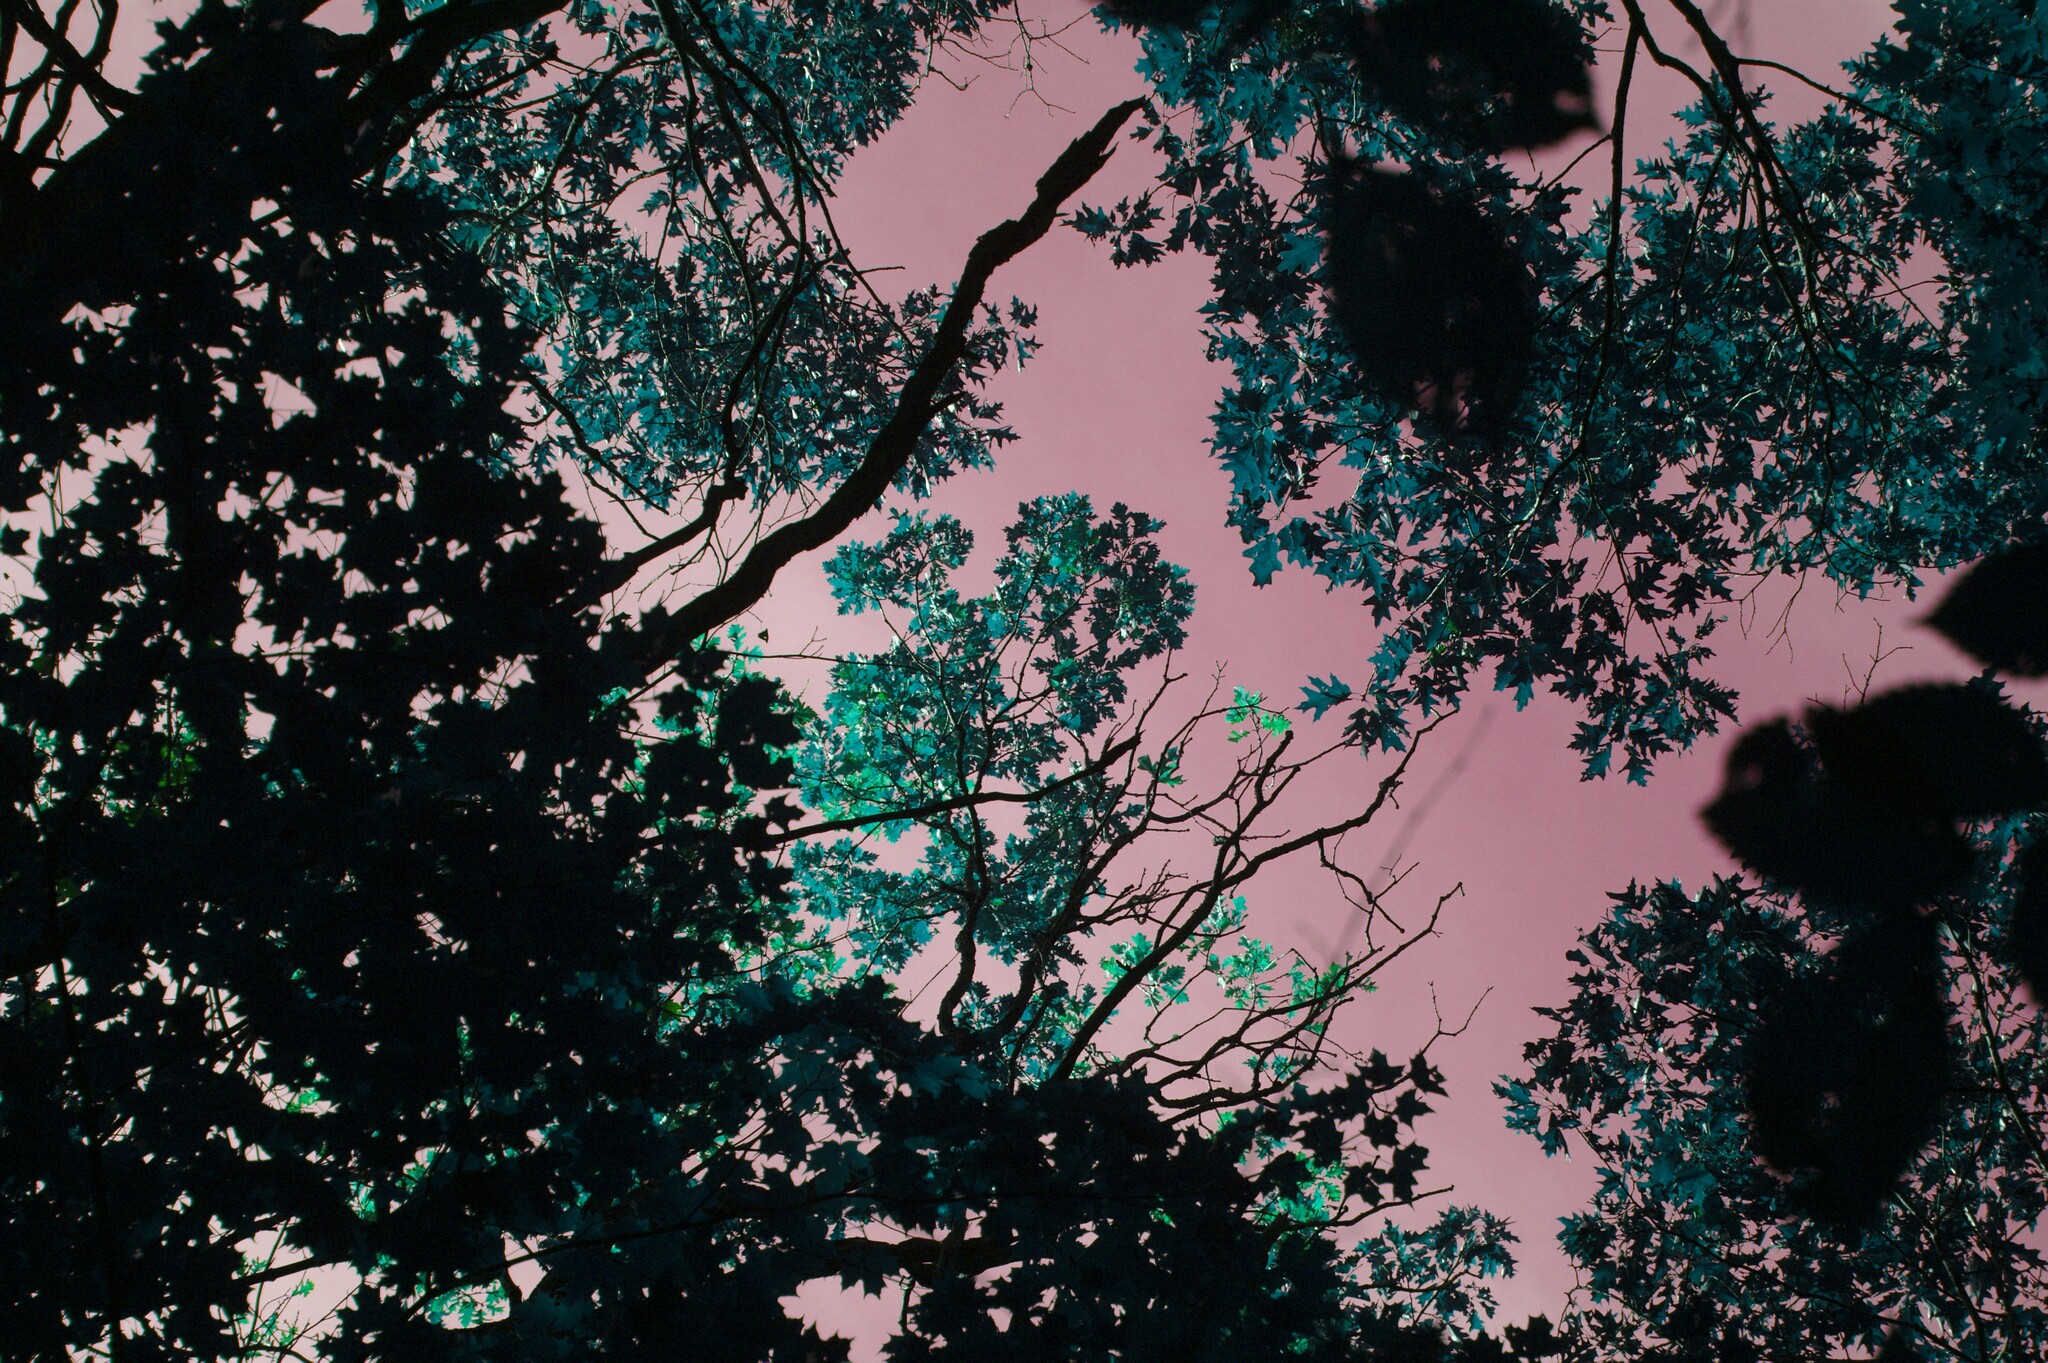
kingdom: Plantae
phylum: Tracheophyta
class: Magnoliopsida
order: Fagales
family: Fagaceae
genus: Quercus
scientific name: Quercus rubra
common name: Red oak
